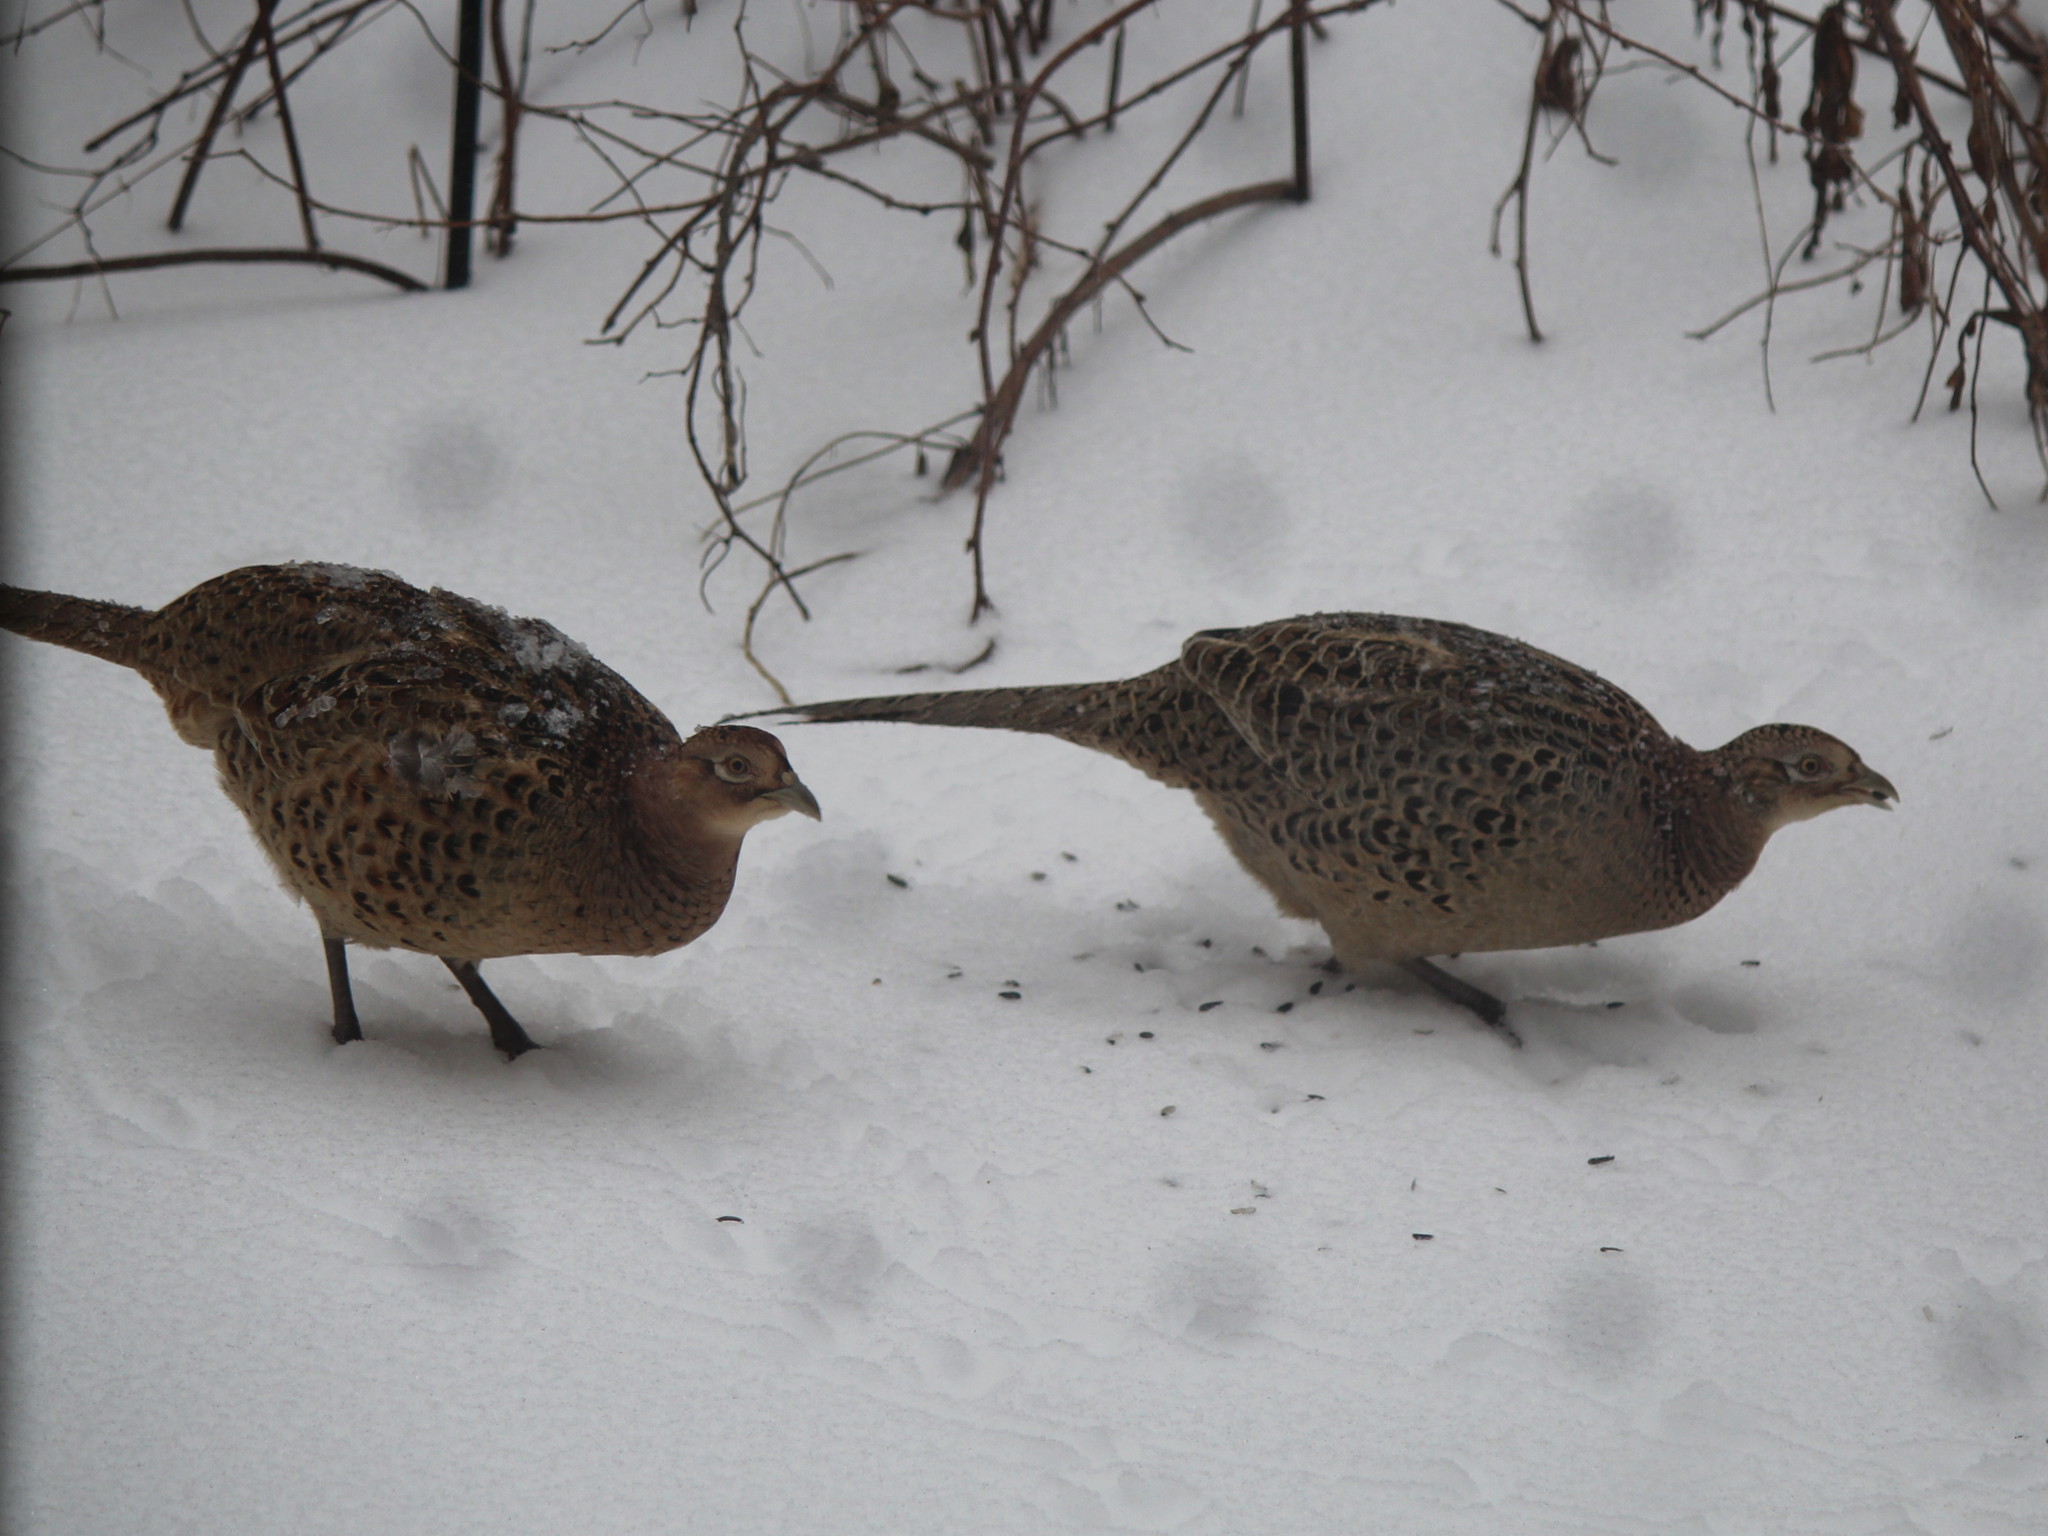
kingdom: Animalia
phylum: Chordata
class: Aves
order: Galliformes
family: Phasianidae
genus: Phasianus
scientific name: Phasianus colchicus
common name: Common pheasant
